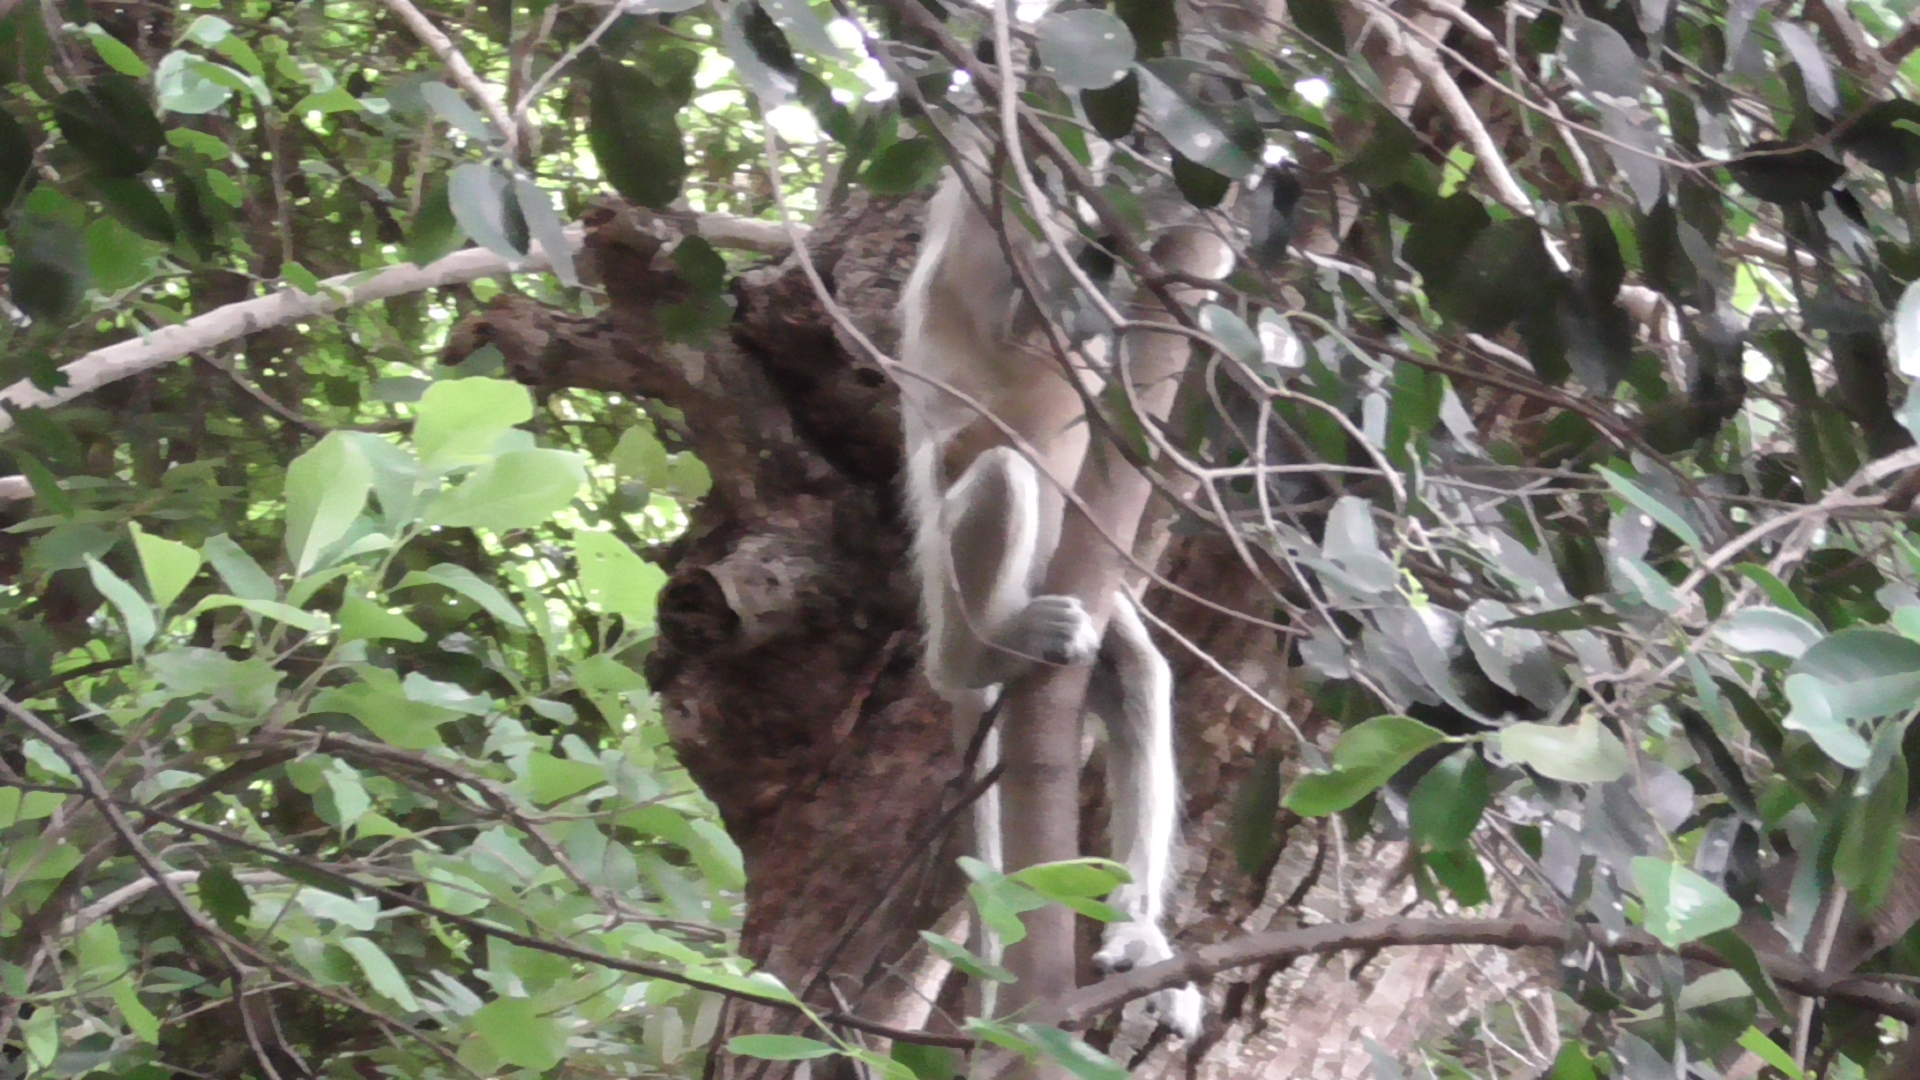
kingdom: Animalia
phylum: Chordata
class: Mammalia
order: Primates
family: Cercopithecidae
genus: Semnopithecus
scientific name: Semnopithecus priam
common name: Tufted gray langur
